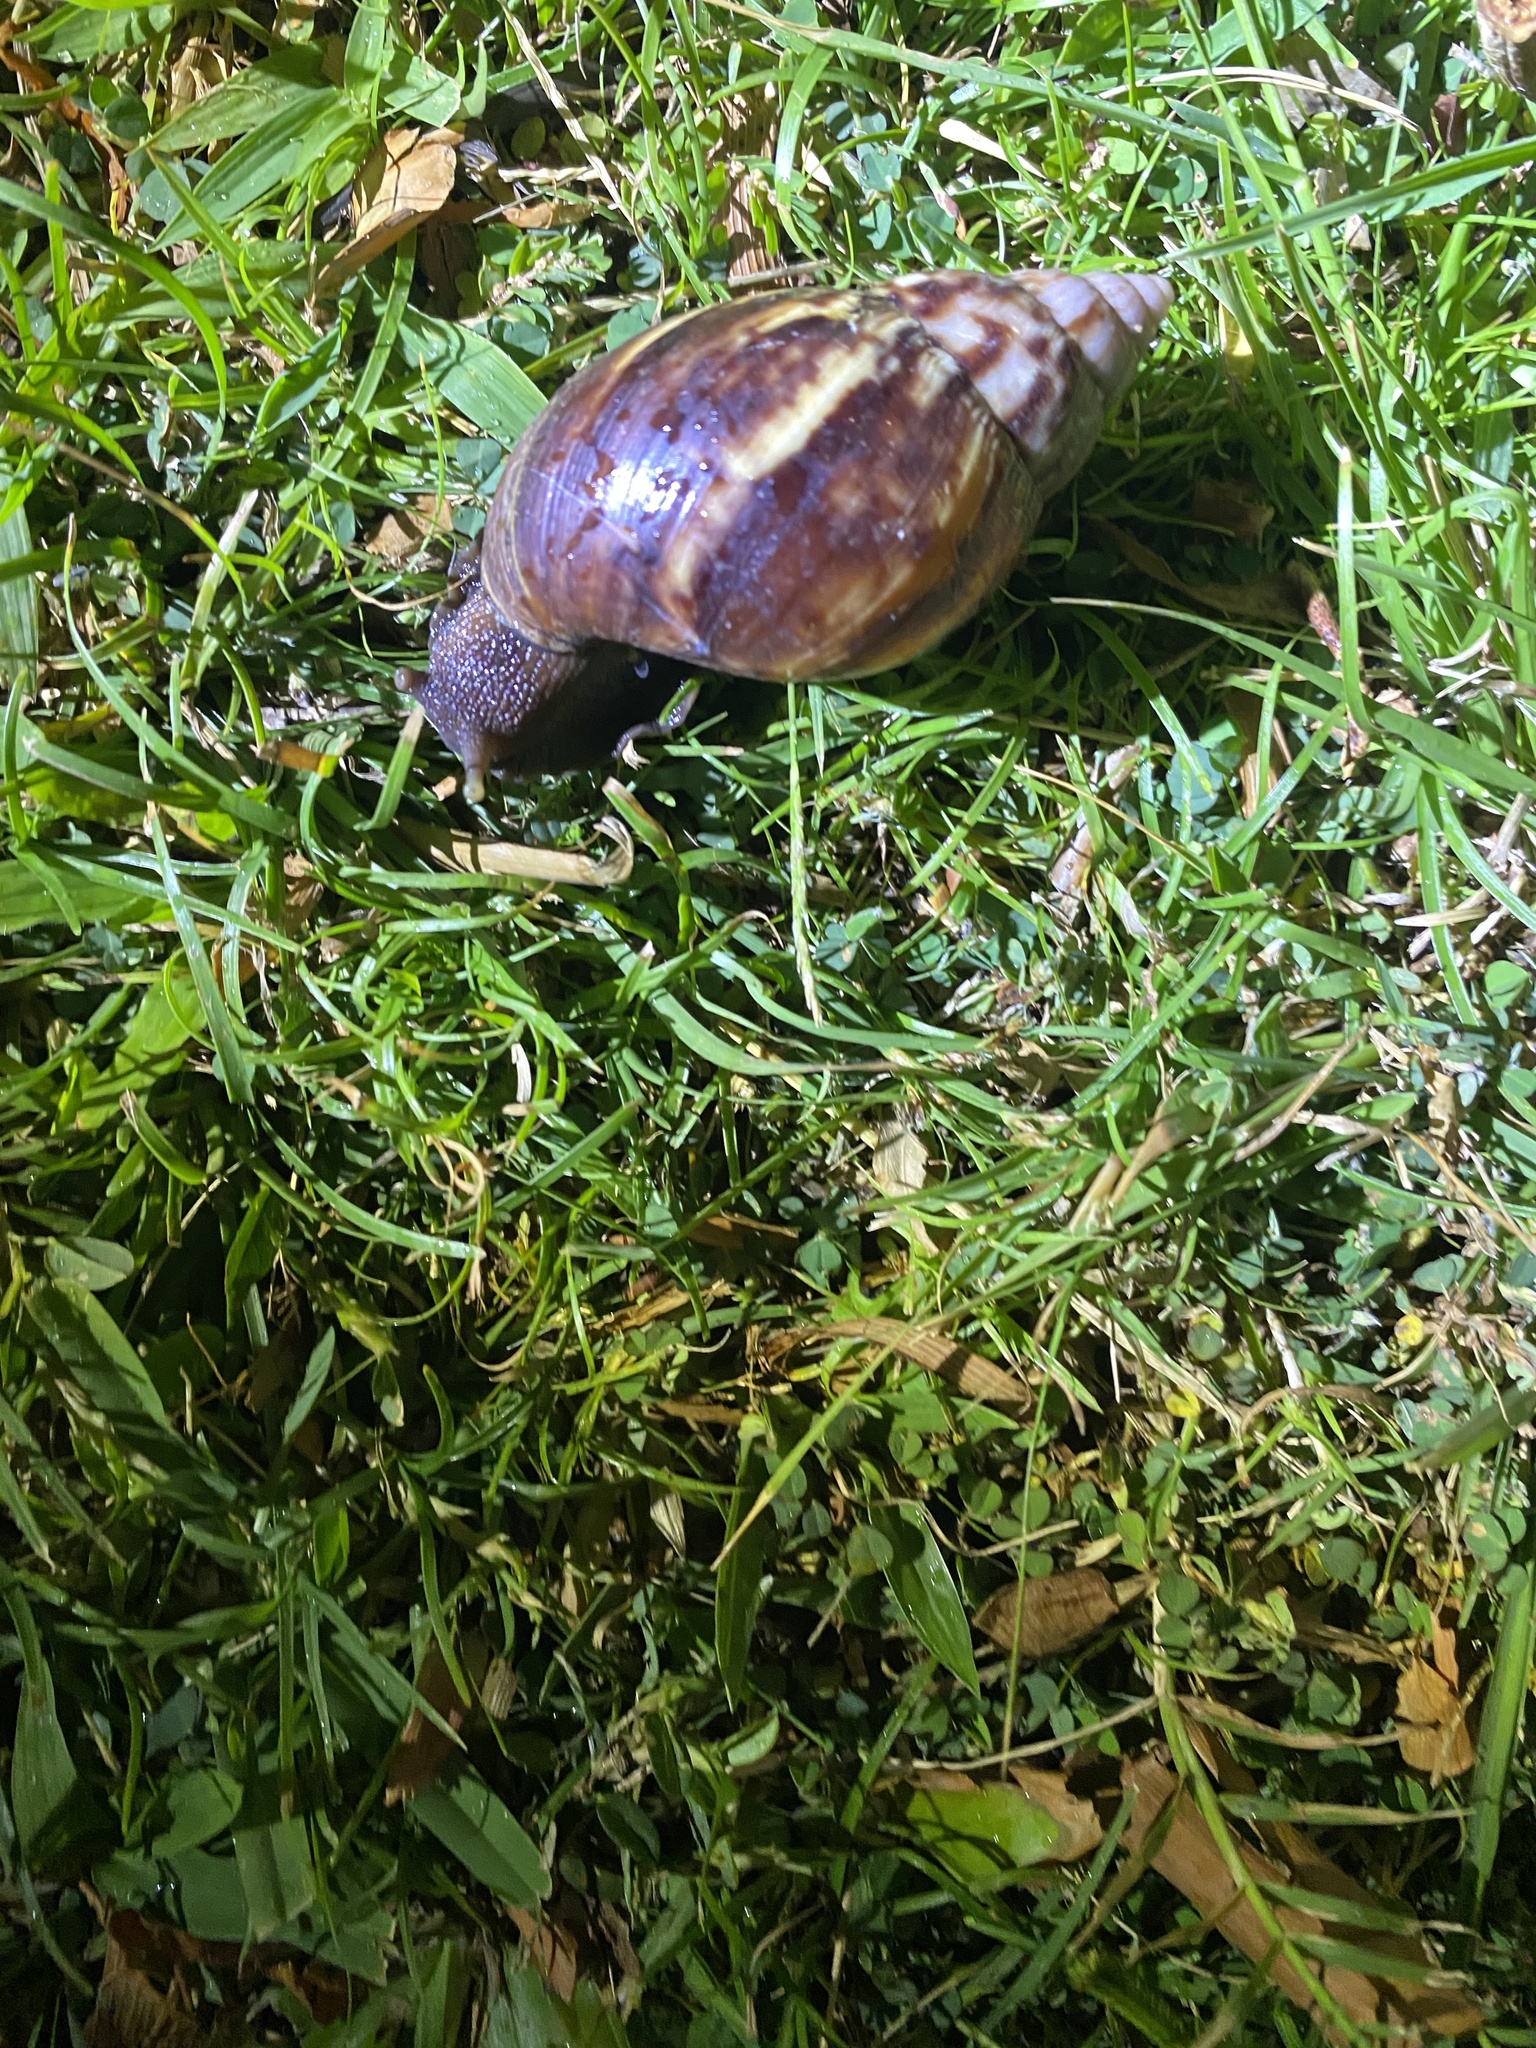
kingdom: Animalia
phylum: Mollusca
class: Gastropoda
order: Stylommatophora
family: Achatinidae
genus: Lissachatina
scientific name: Lissachatina fulica
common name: Giant african snail
